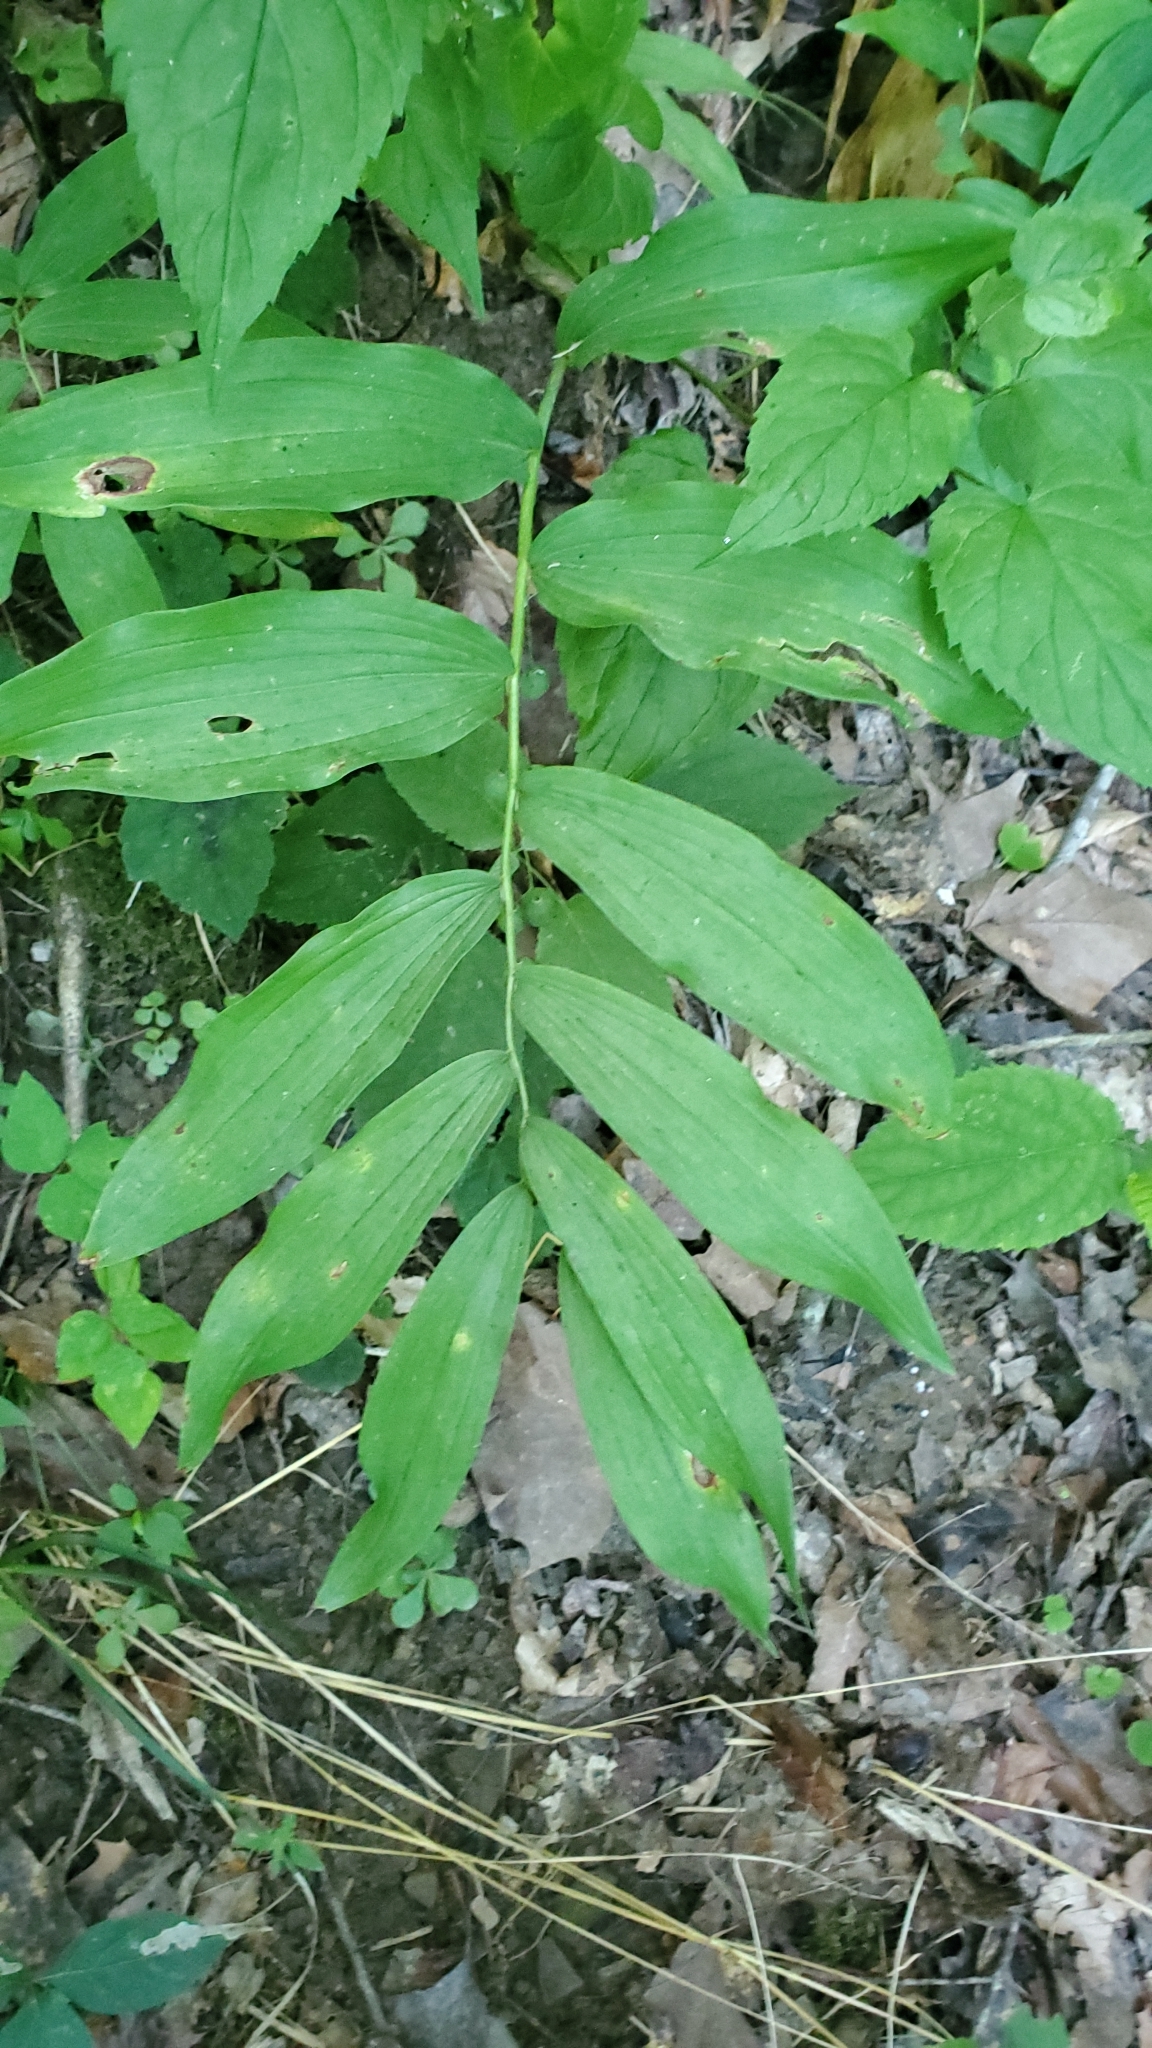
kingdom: Plantae
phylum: Tracheophyta
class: Liliopsida
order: Asparagales
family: Asparagaceae
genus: Polygonatum
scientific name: Polygonatum biflorum
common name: American solomon's-seal
